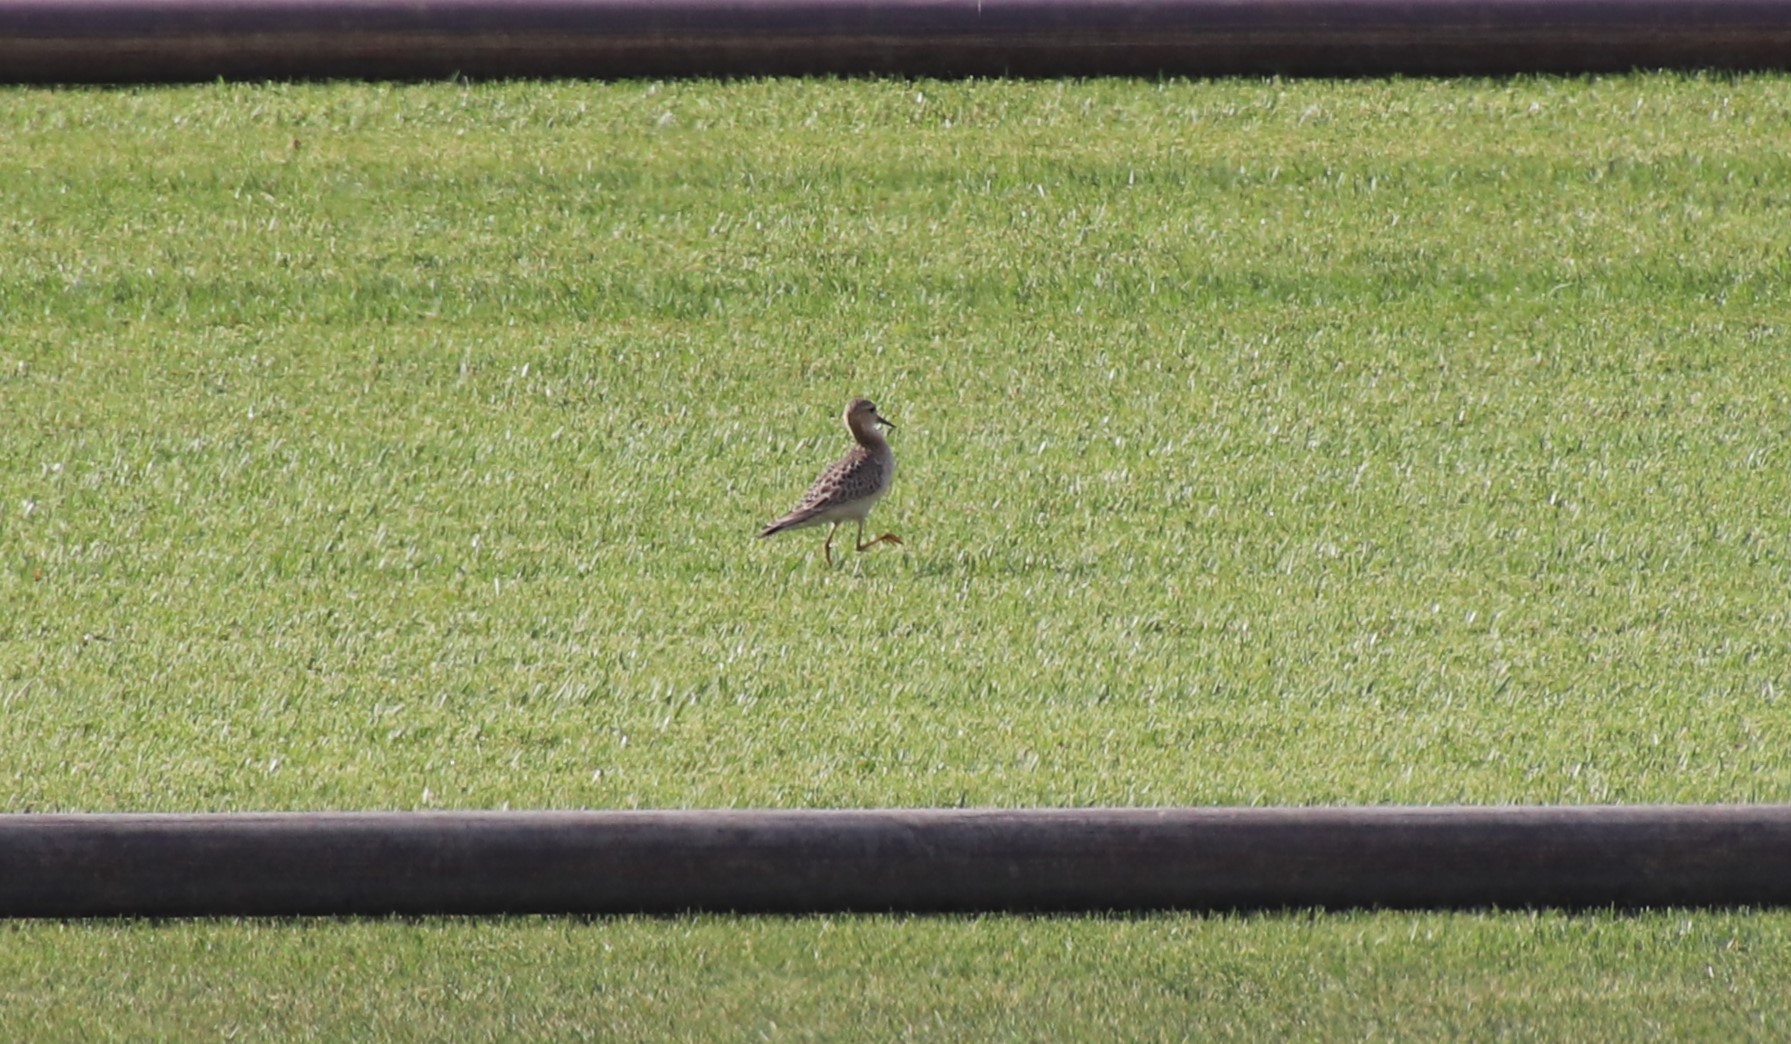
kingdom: Animalia
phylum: Chordata
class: Aves
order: Charadriiformes
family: Scolopacidae
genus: Calidris
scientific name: Calidris subruficollis
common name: Buff-breasted sandpiper
